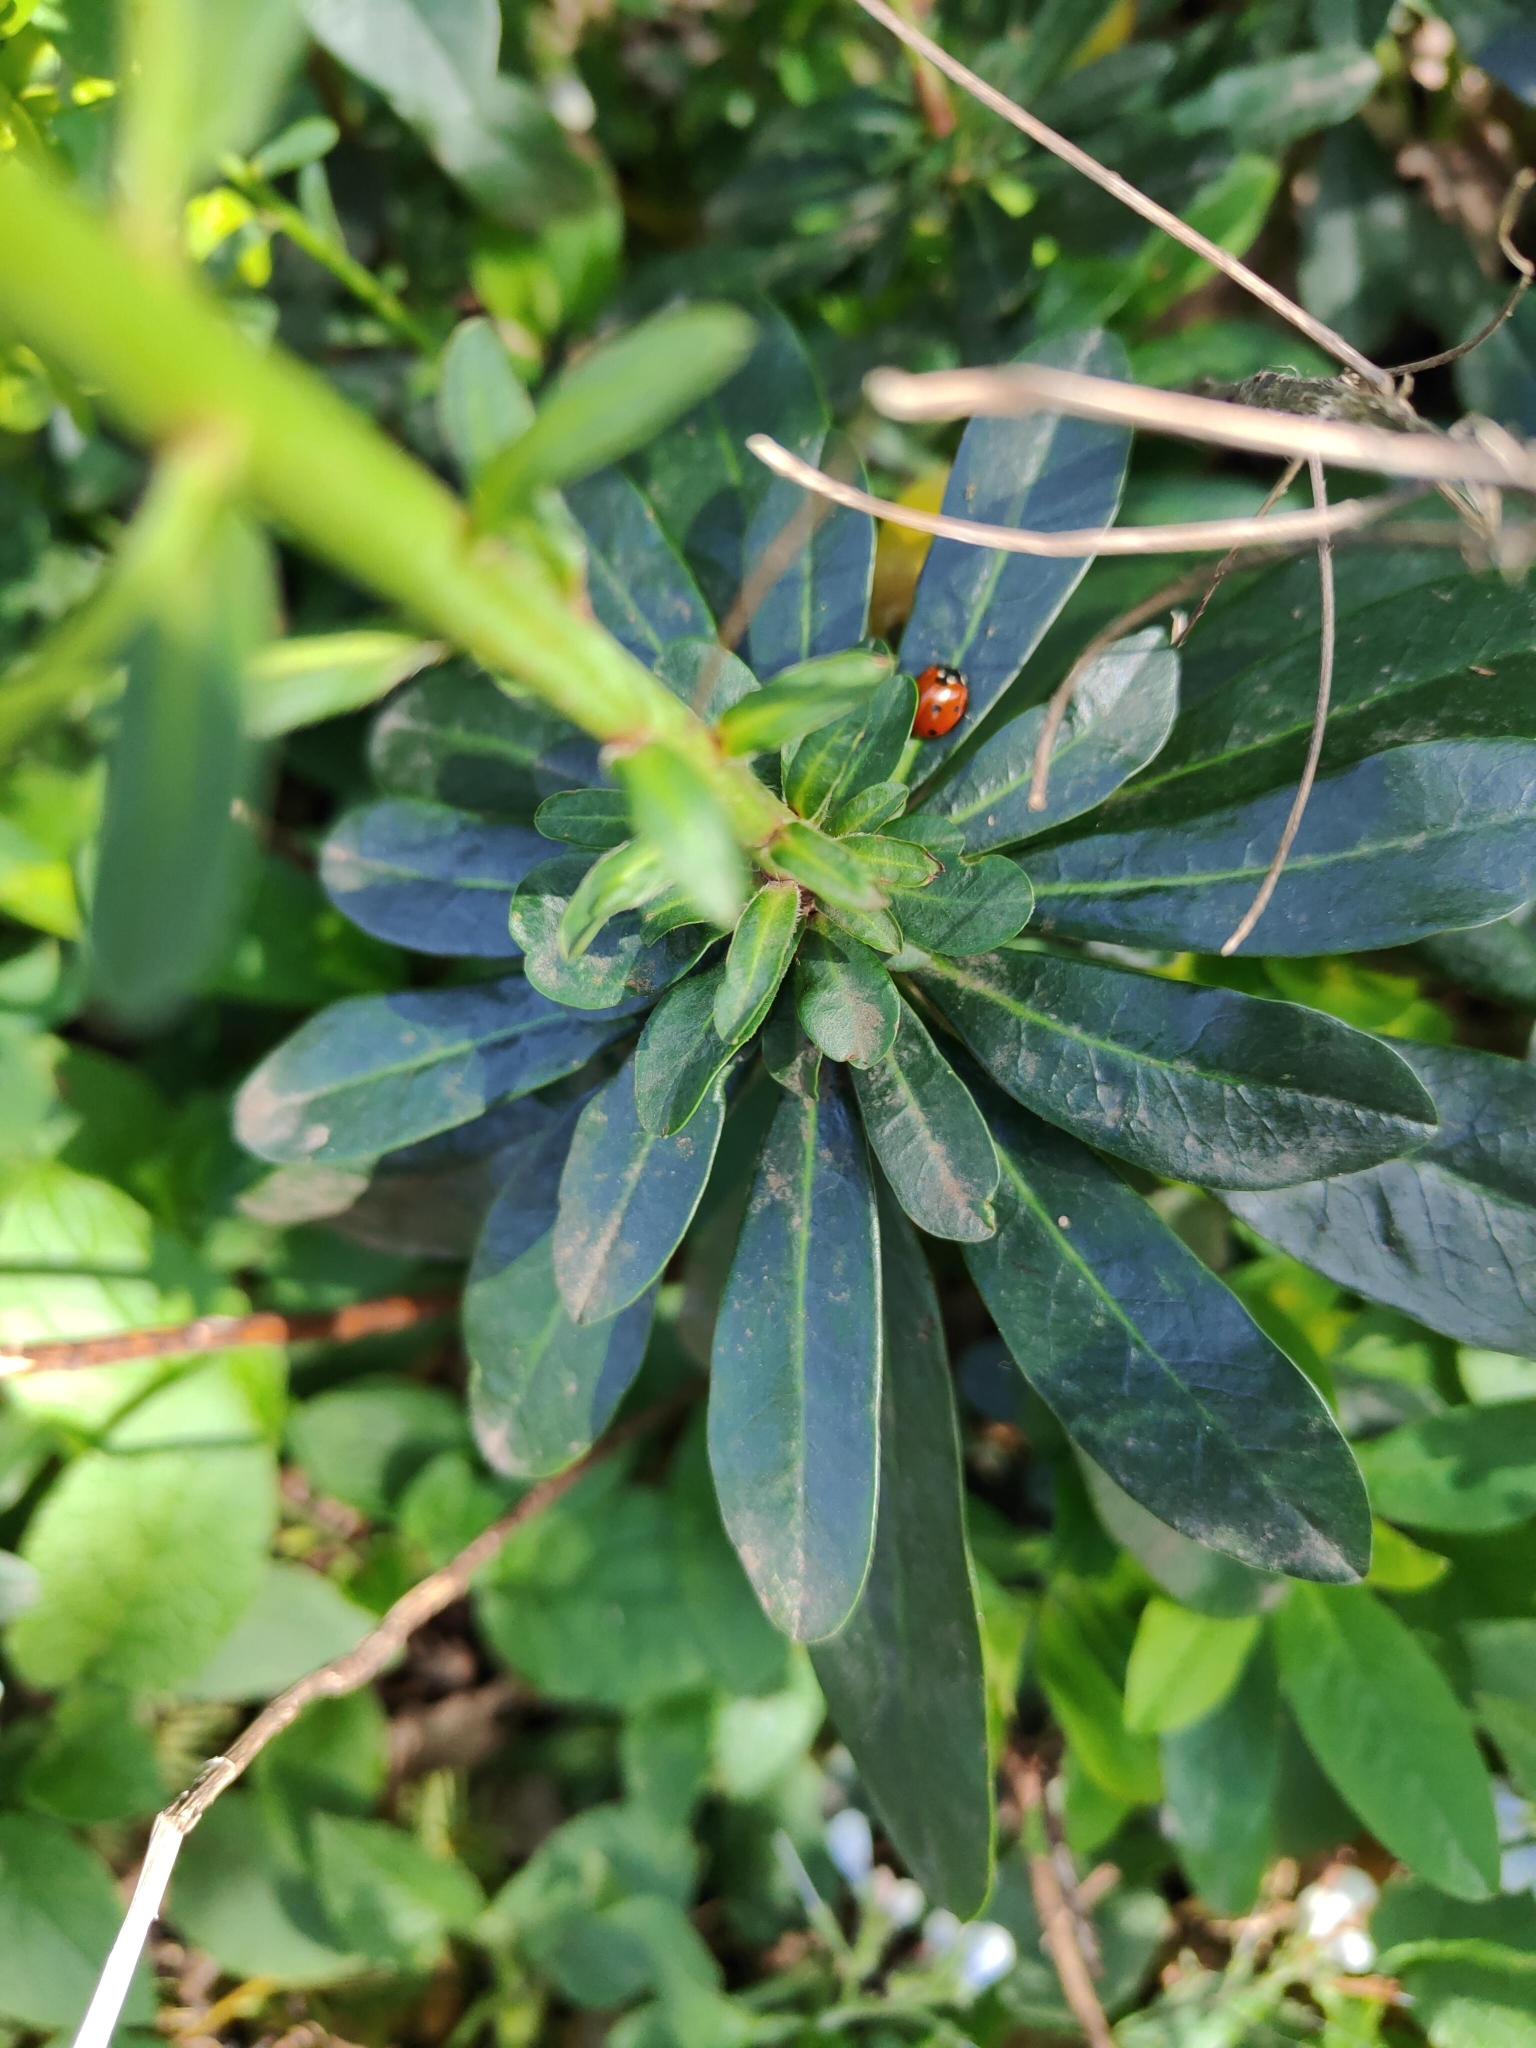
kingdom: Plantae
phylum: Tracheophyta
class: Magnoliopsida
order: Malpighiales
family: Euphorbiaceae
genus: Euphorbia
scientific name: Euphorbia amygdaloides
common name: Wood spurge
